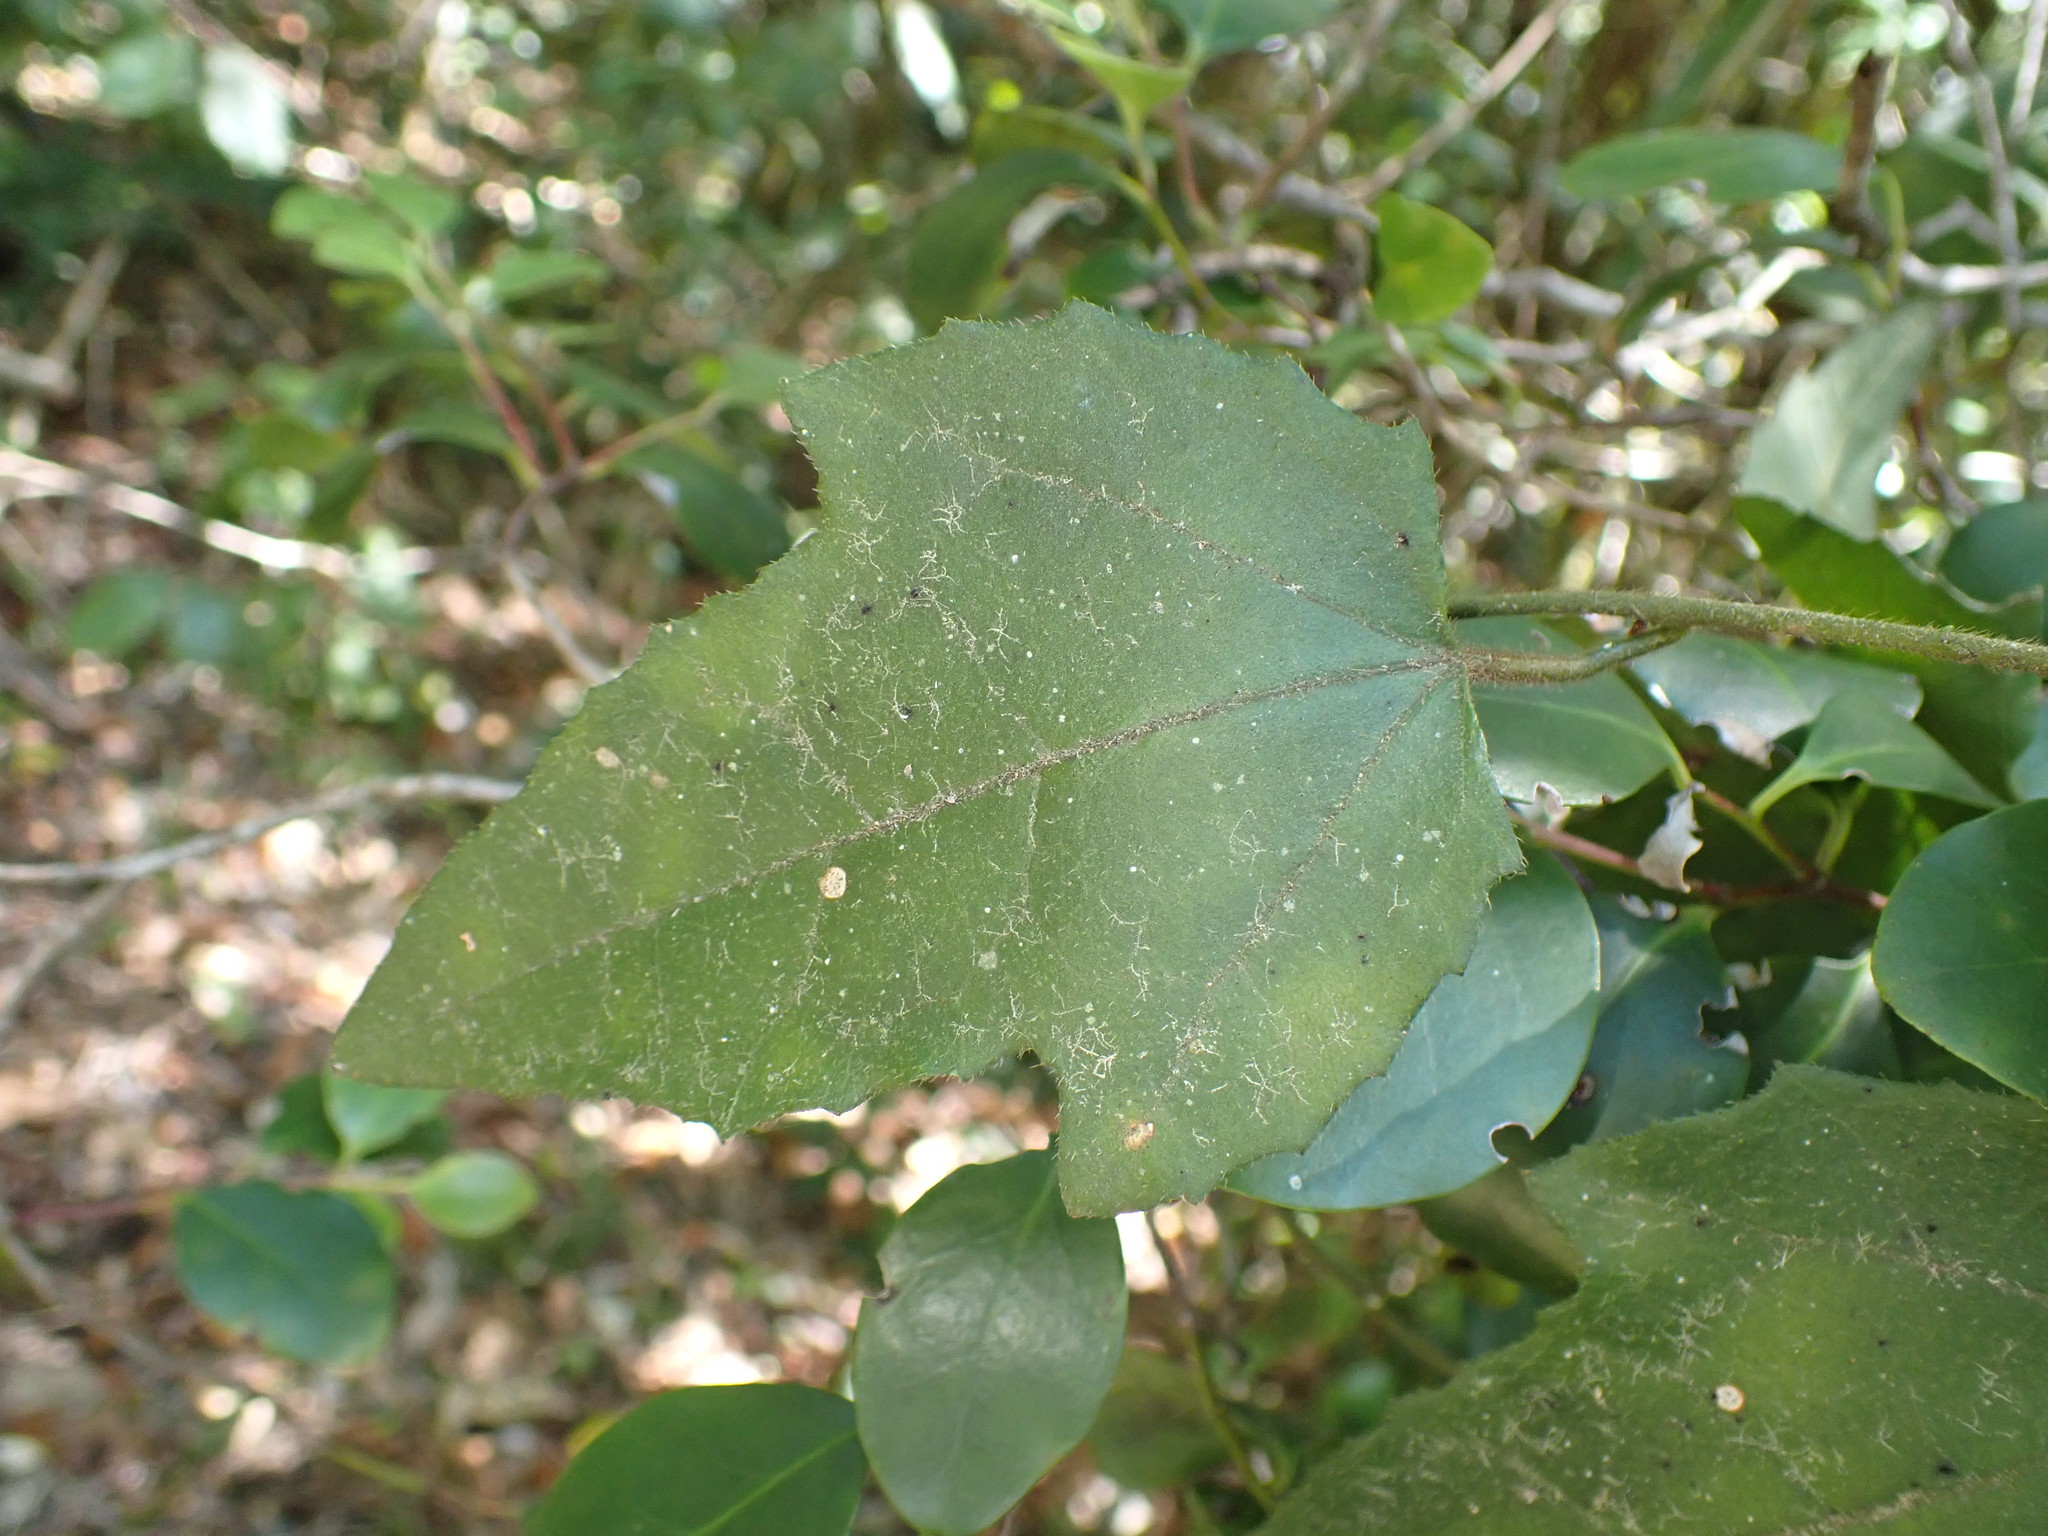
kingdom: Plantae
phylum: Tracheophyta
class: Magnoliopsida
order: Icacinales
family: Icacinaceae
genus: Pyrenacantha
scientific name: Pyrenacantha scandens
